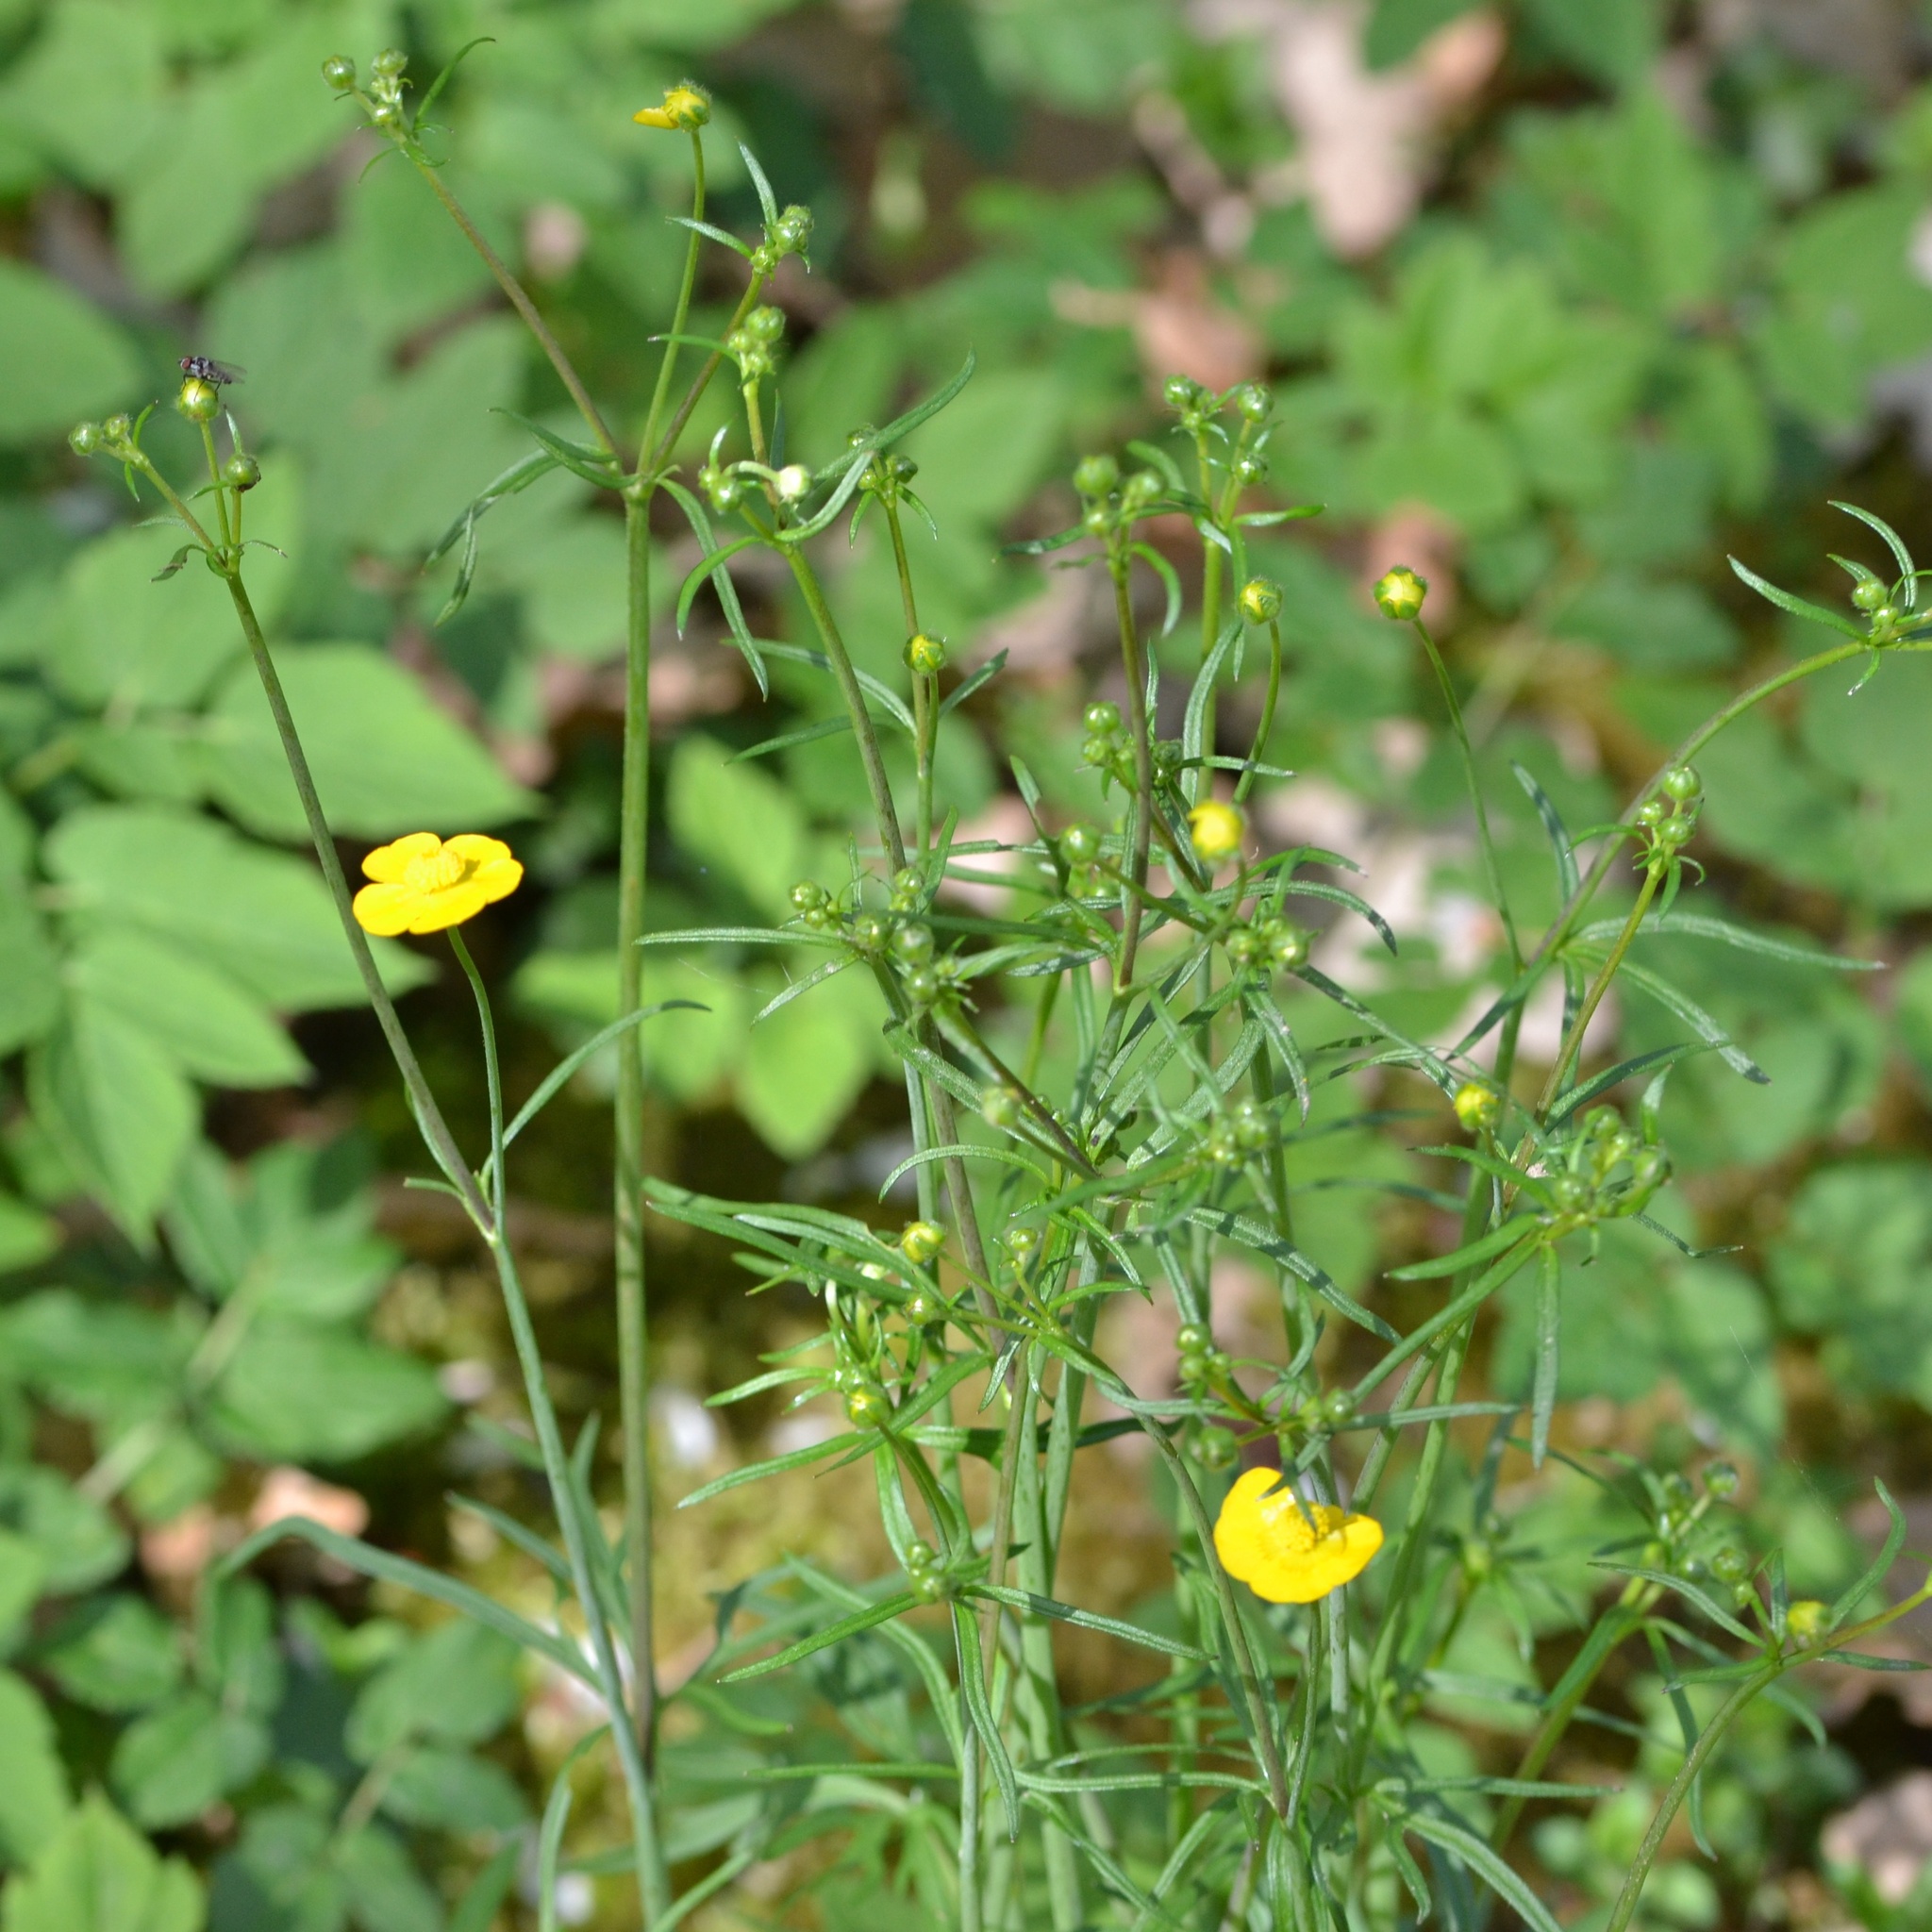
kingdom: Plantae
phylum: Tracheophyta
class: Magnoliopsida
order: Ranunculales
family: Ranunculaceae
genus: Ranunculus
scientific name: Ranunculus acris
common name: Meadow buttercup
